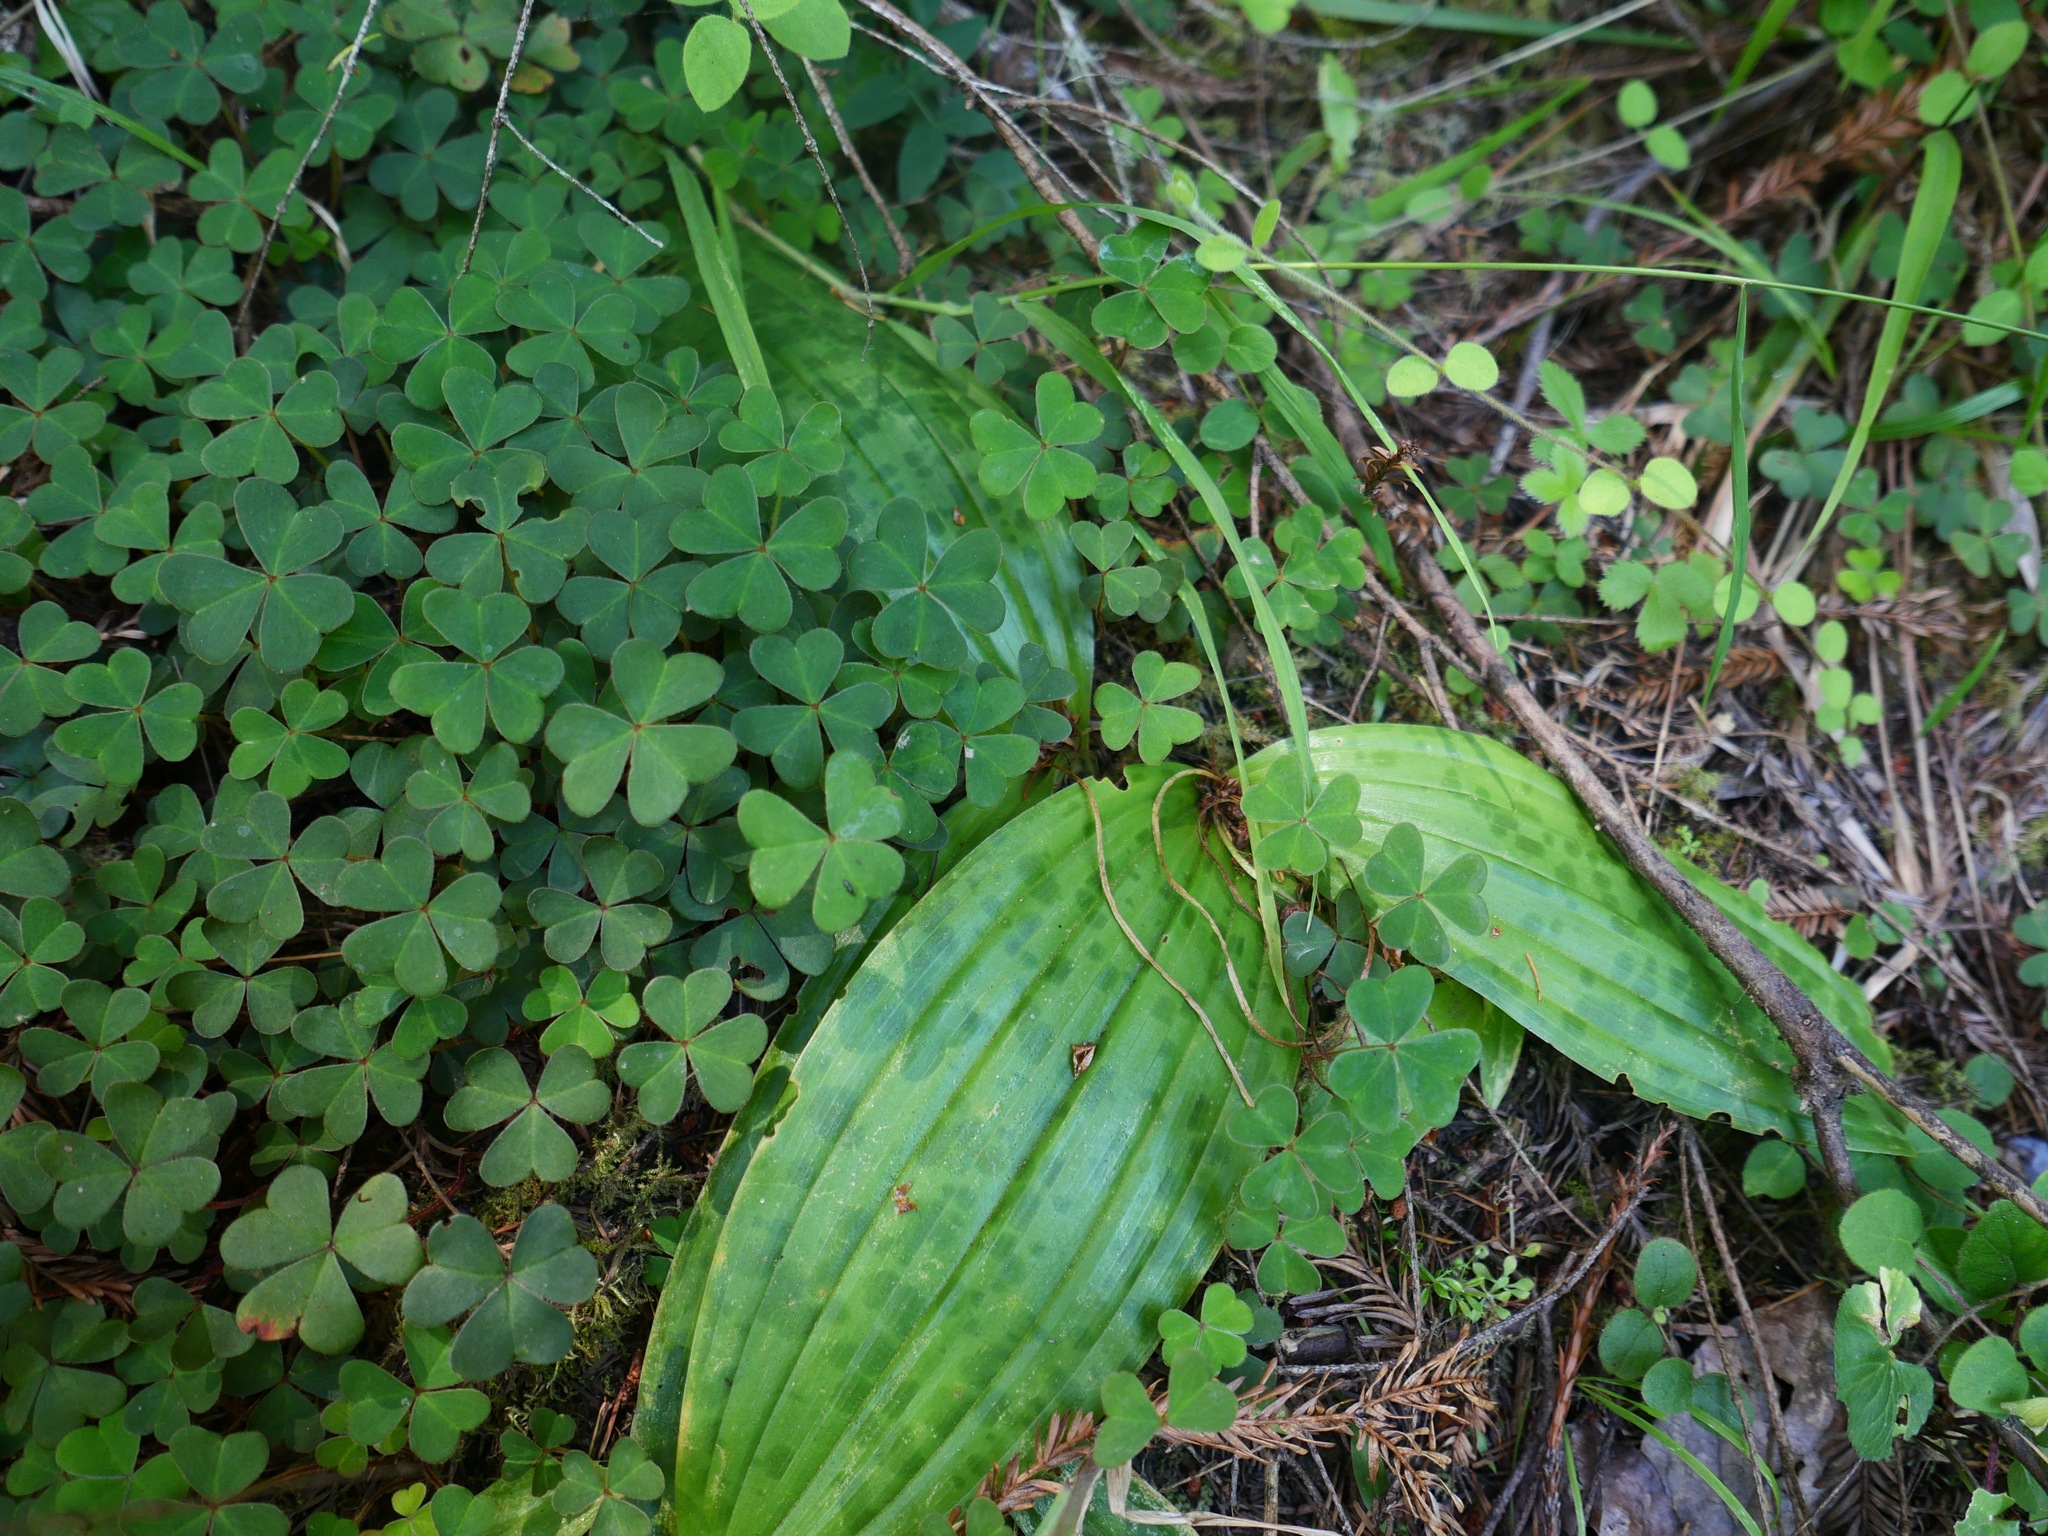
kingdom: Plantae
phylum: Tracheophyta
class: Liliopsida
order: Liliales
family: Liliaceae
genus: Scoliopus
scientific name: Scoliopus bigelovii
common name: Foetid adder's-tongue
